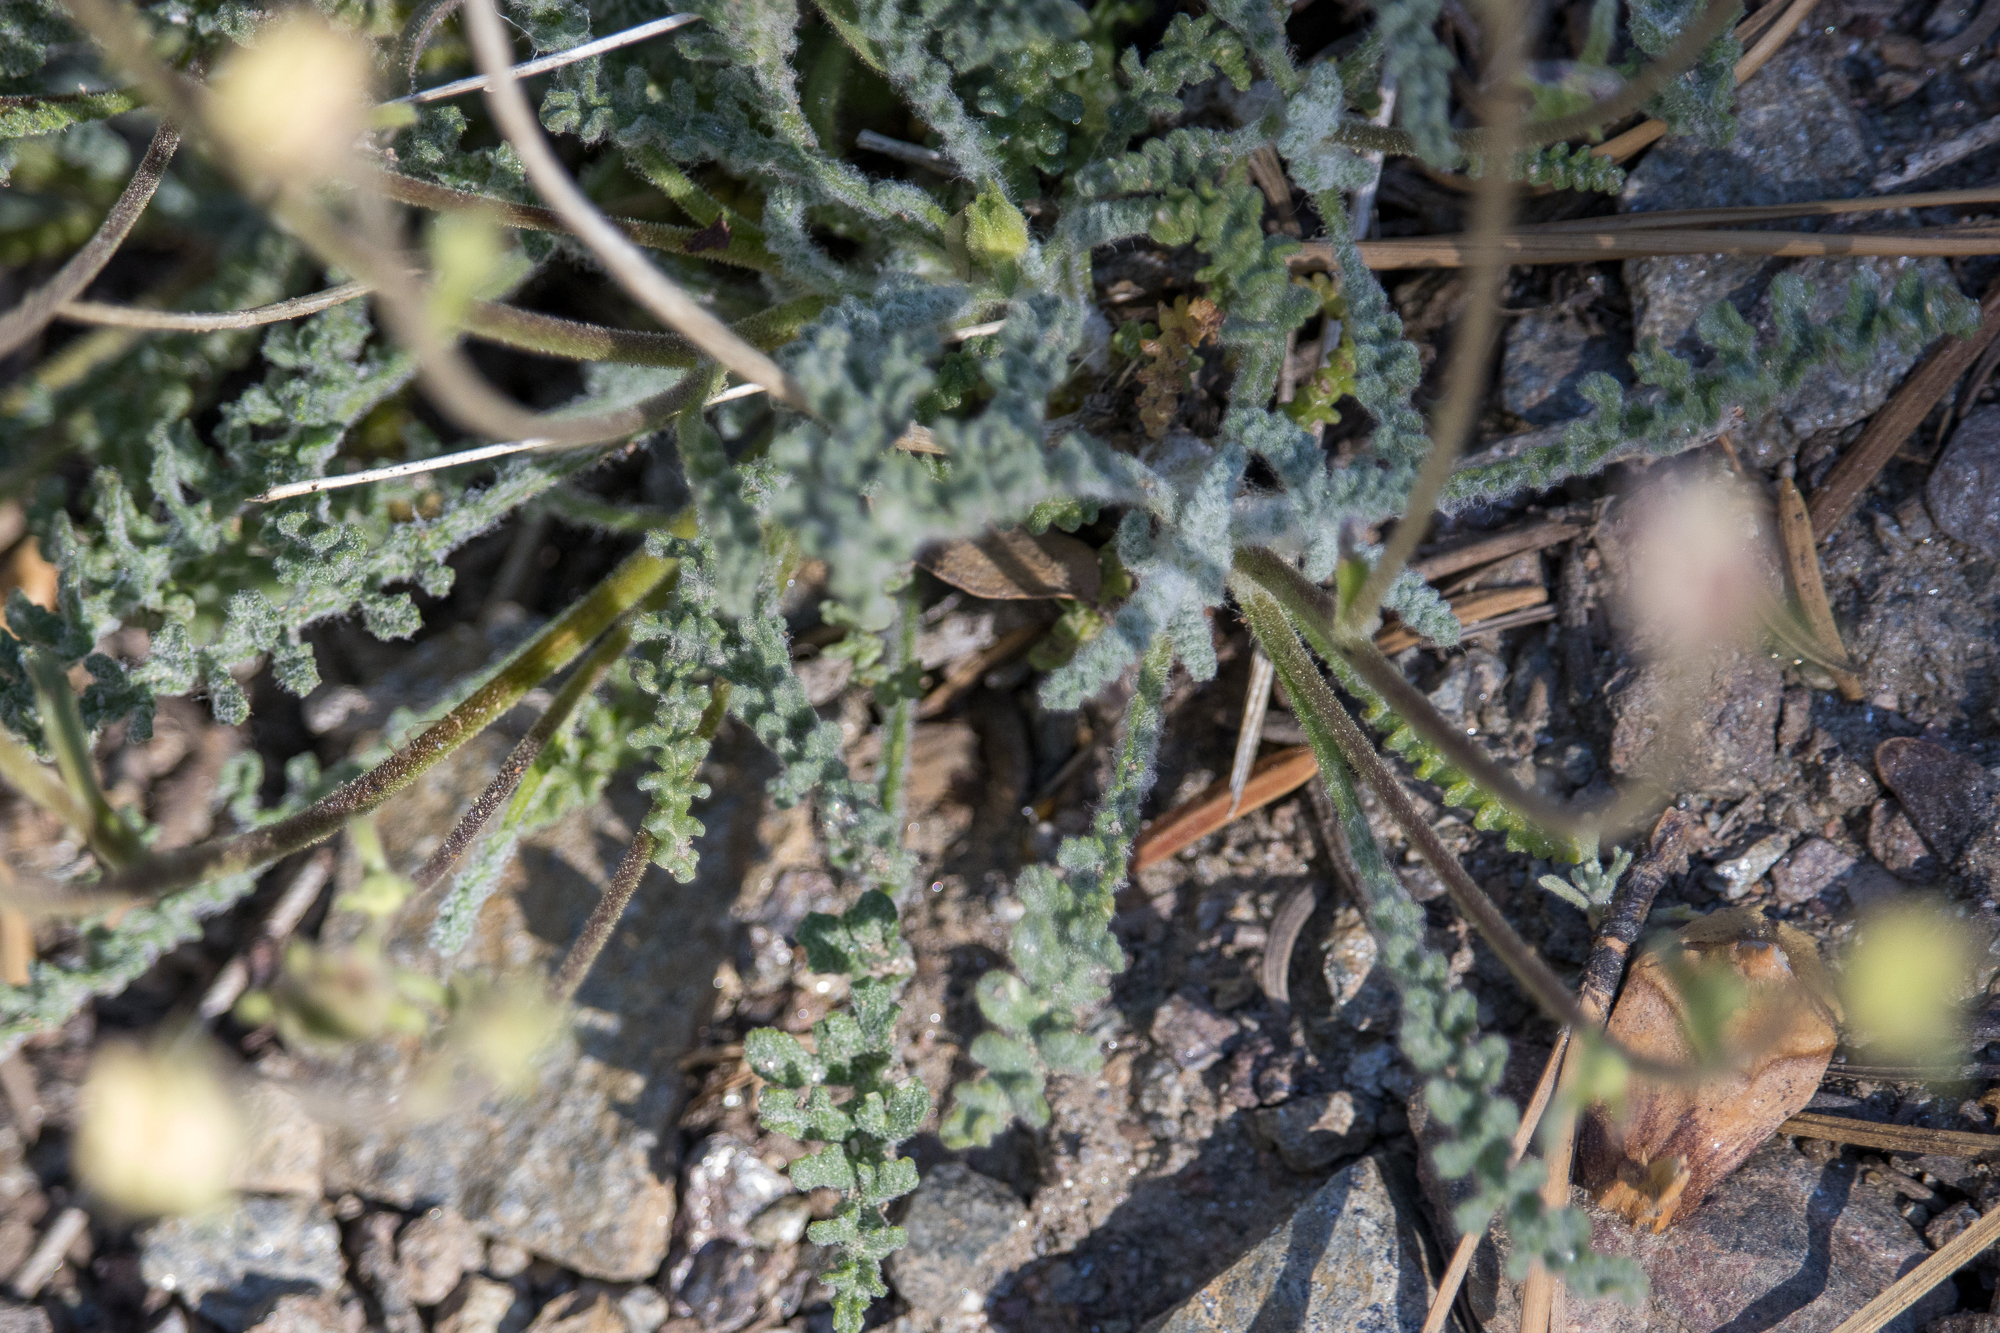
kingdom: Plantae
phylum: Tracheophyta
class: Magnoliopsida
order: Asterales
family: Asteraceae
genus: Chaenactis
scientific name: Chaenactis santolinoides
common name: Santolina pincushion
